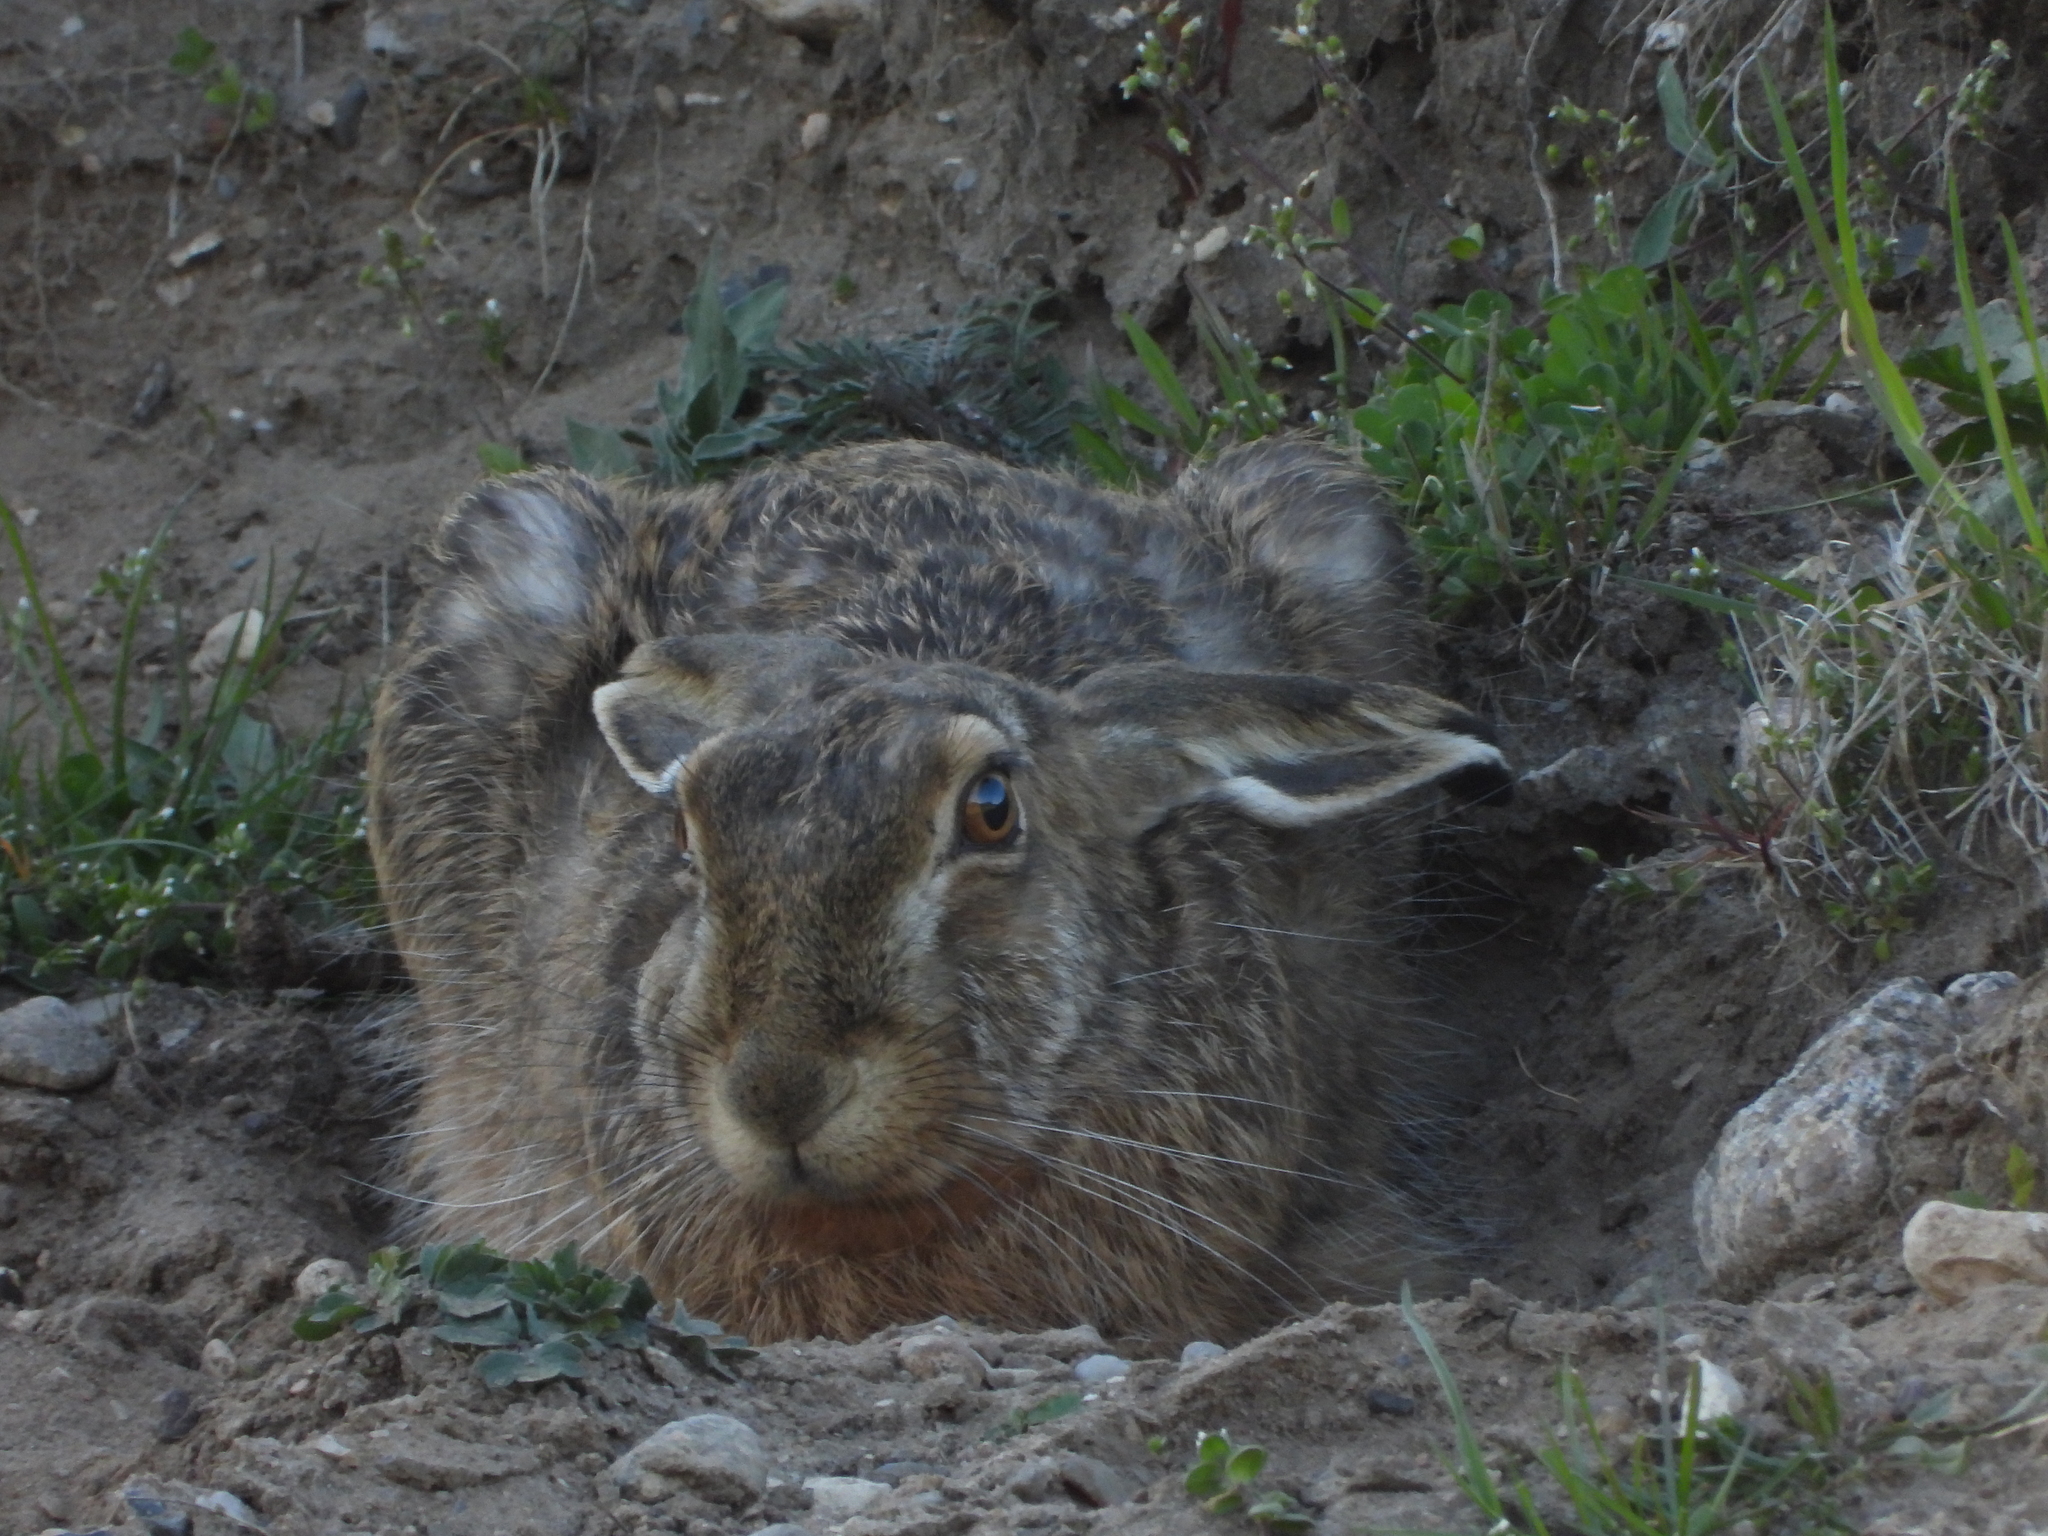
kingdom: Animalia
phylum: Chordata
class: Mammalia
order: Lagomorpha
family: Leporidae
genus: Lepus
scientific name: Lepus europaeus
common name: European hare
